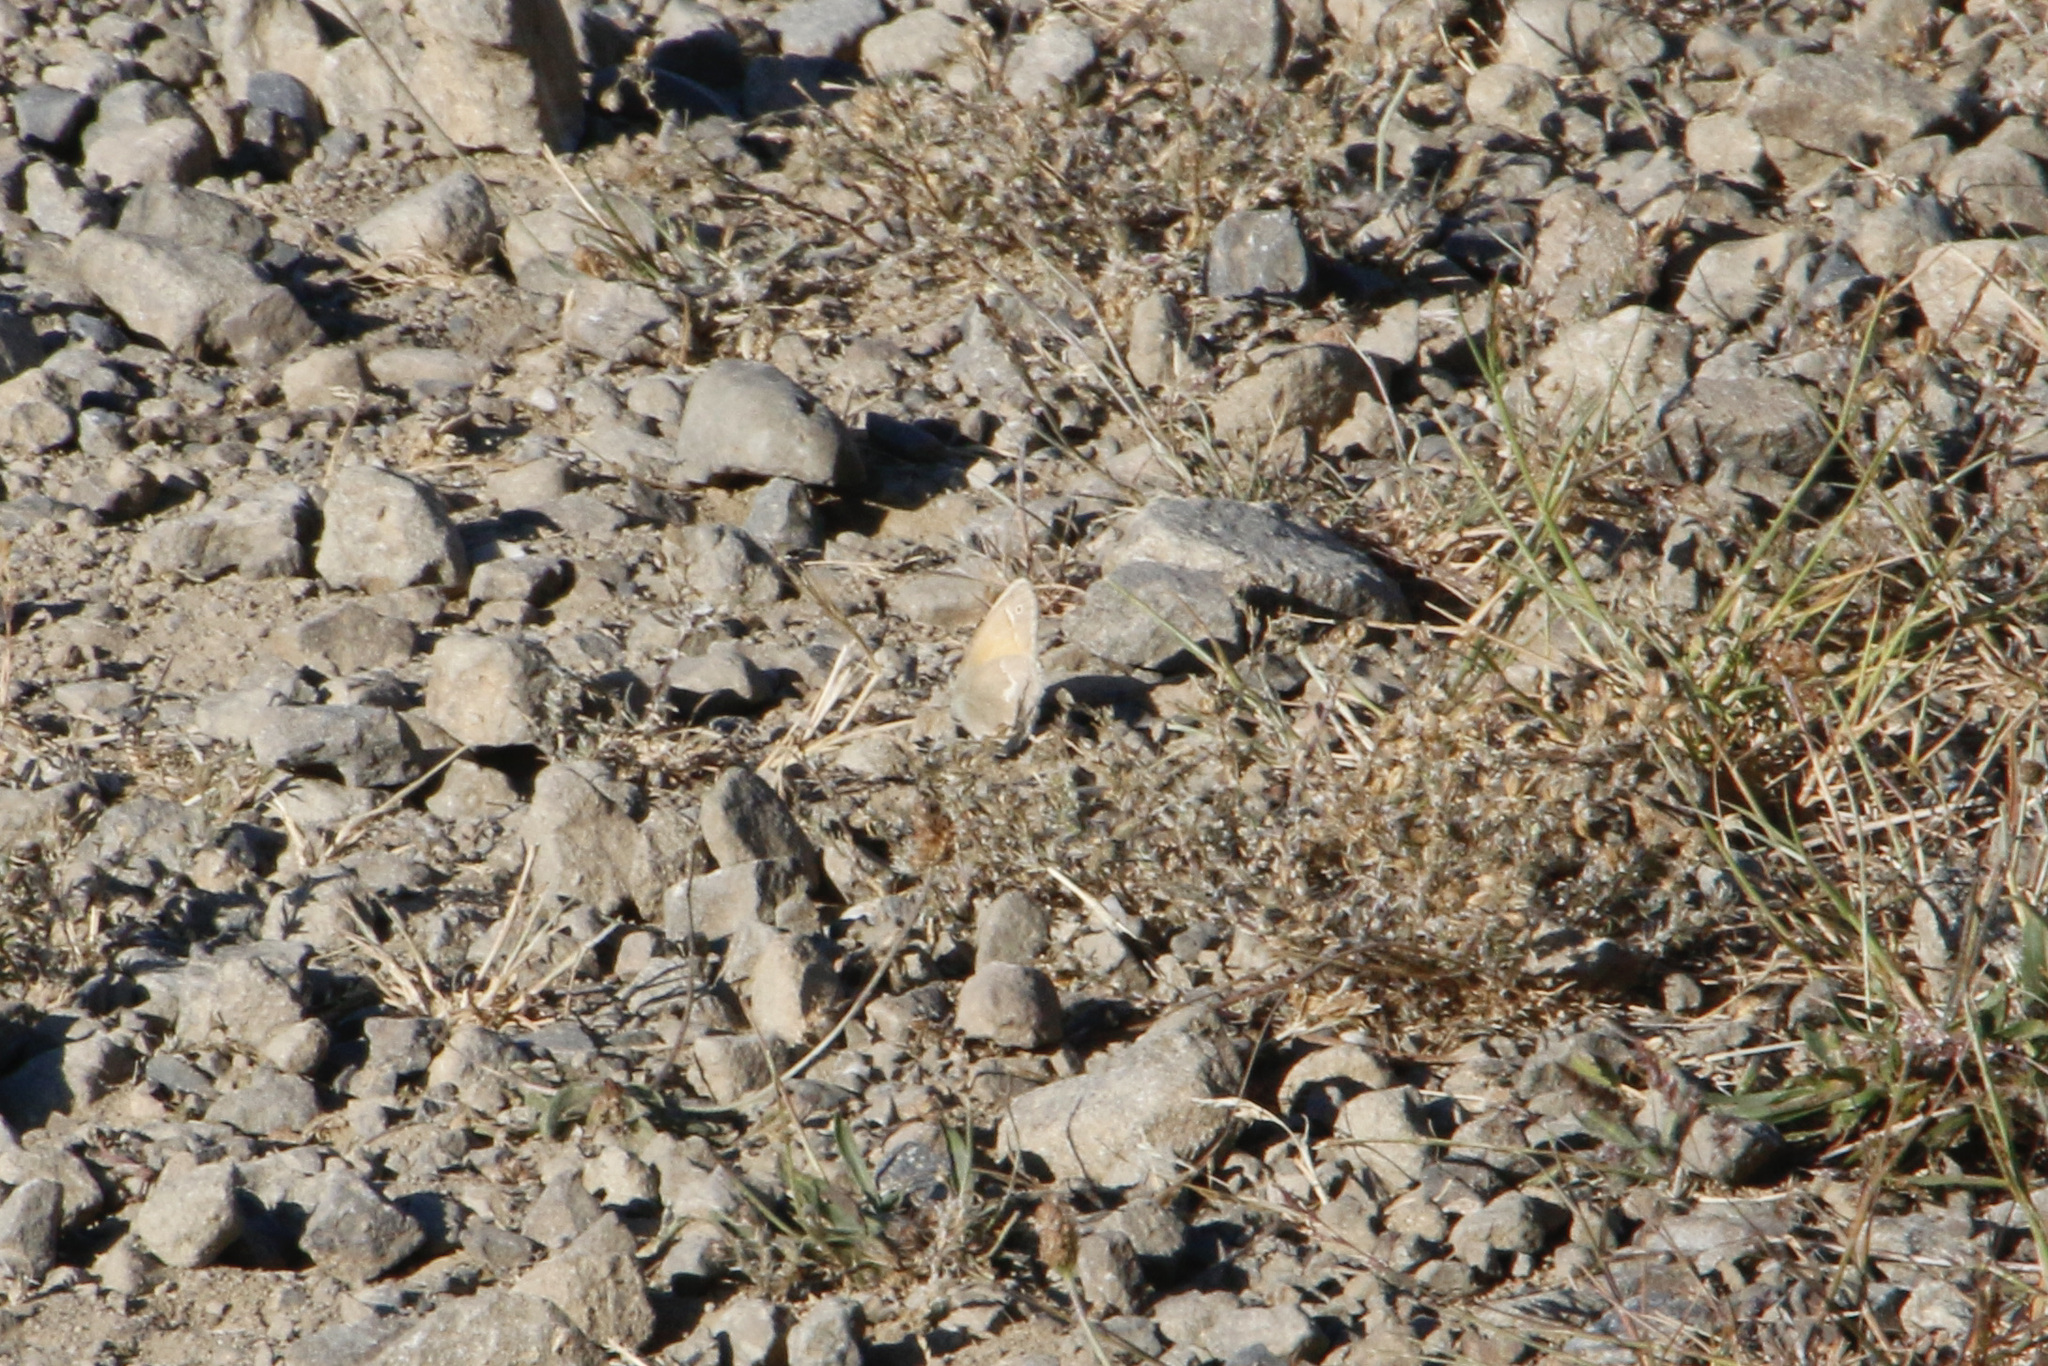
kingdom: Animalia
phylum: Arthropoda
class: Insecta
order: Lepidoptera
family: Nymphalidae
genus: Coenonympha
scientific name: Coenonympha california
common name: Common ringlet
